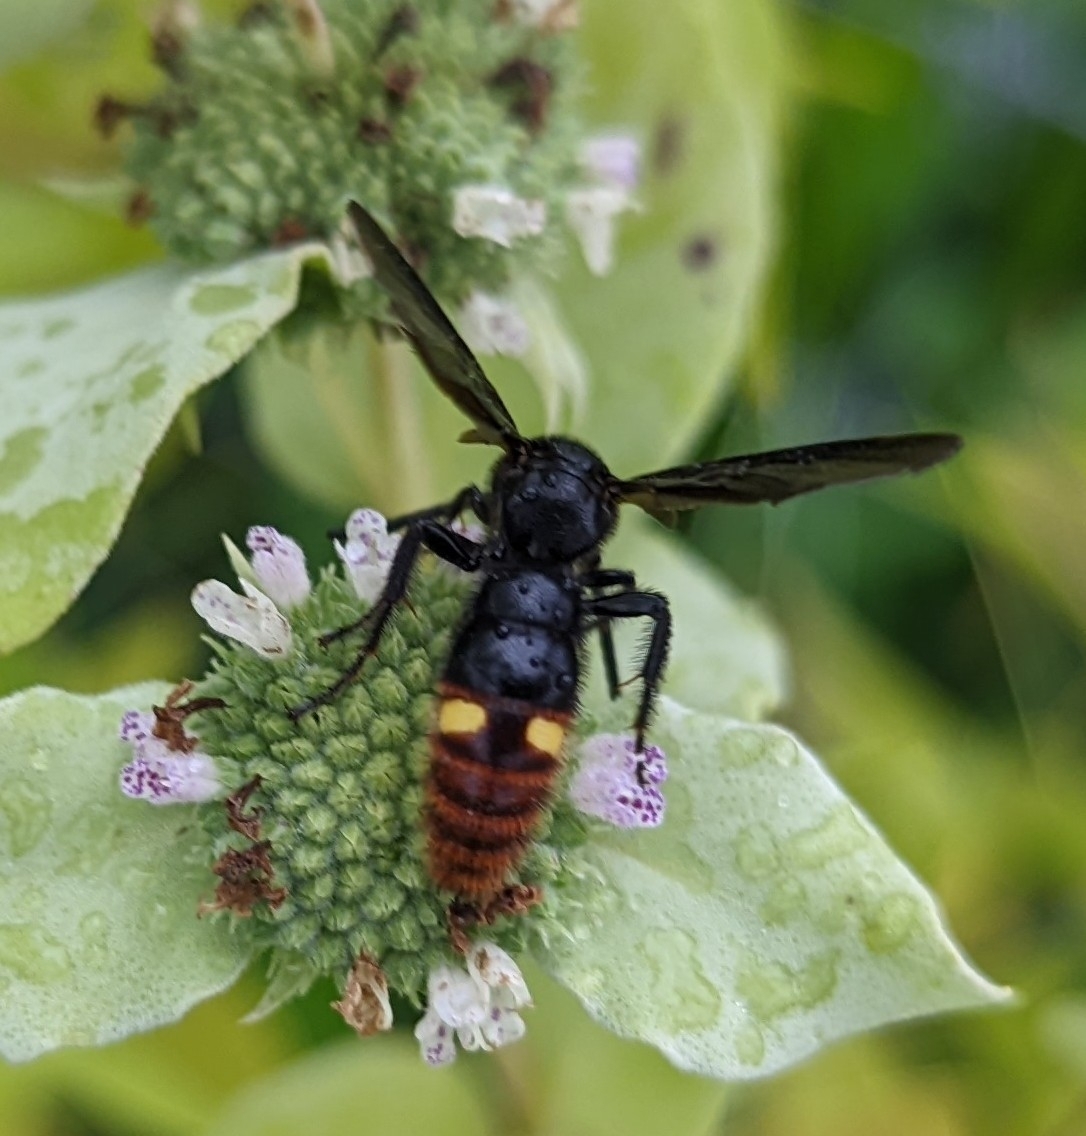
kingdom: Animalia
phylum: Arthropoda
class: Insecta
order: Hymenoptera
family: Scoliidae
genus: Scolia
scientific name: Scolia dubia
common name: Blue-winged scoliid wasp
